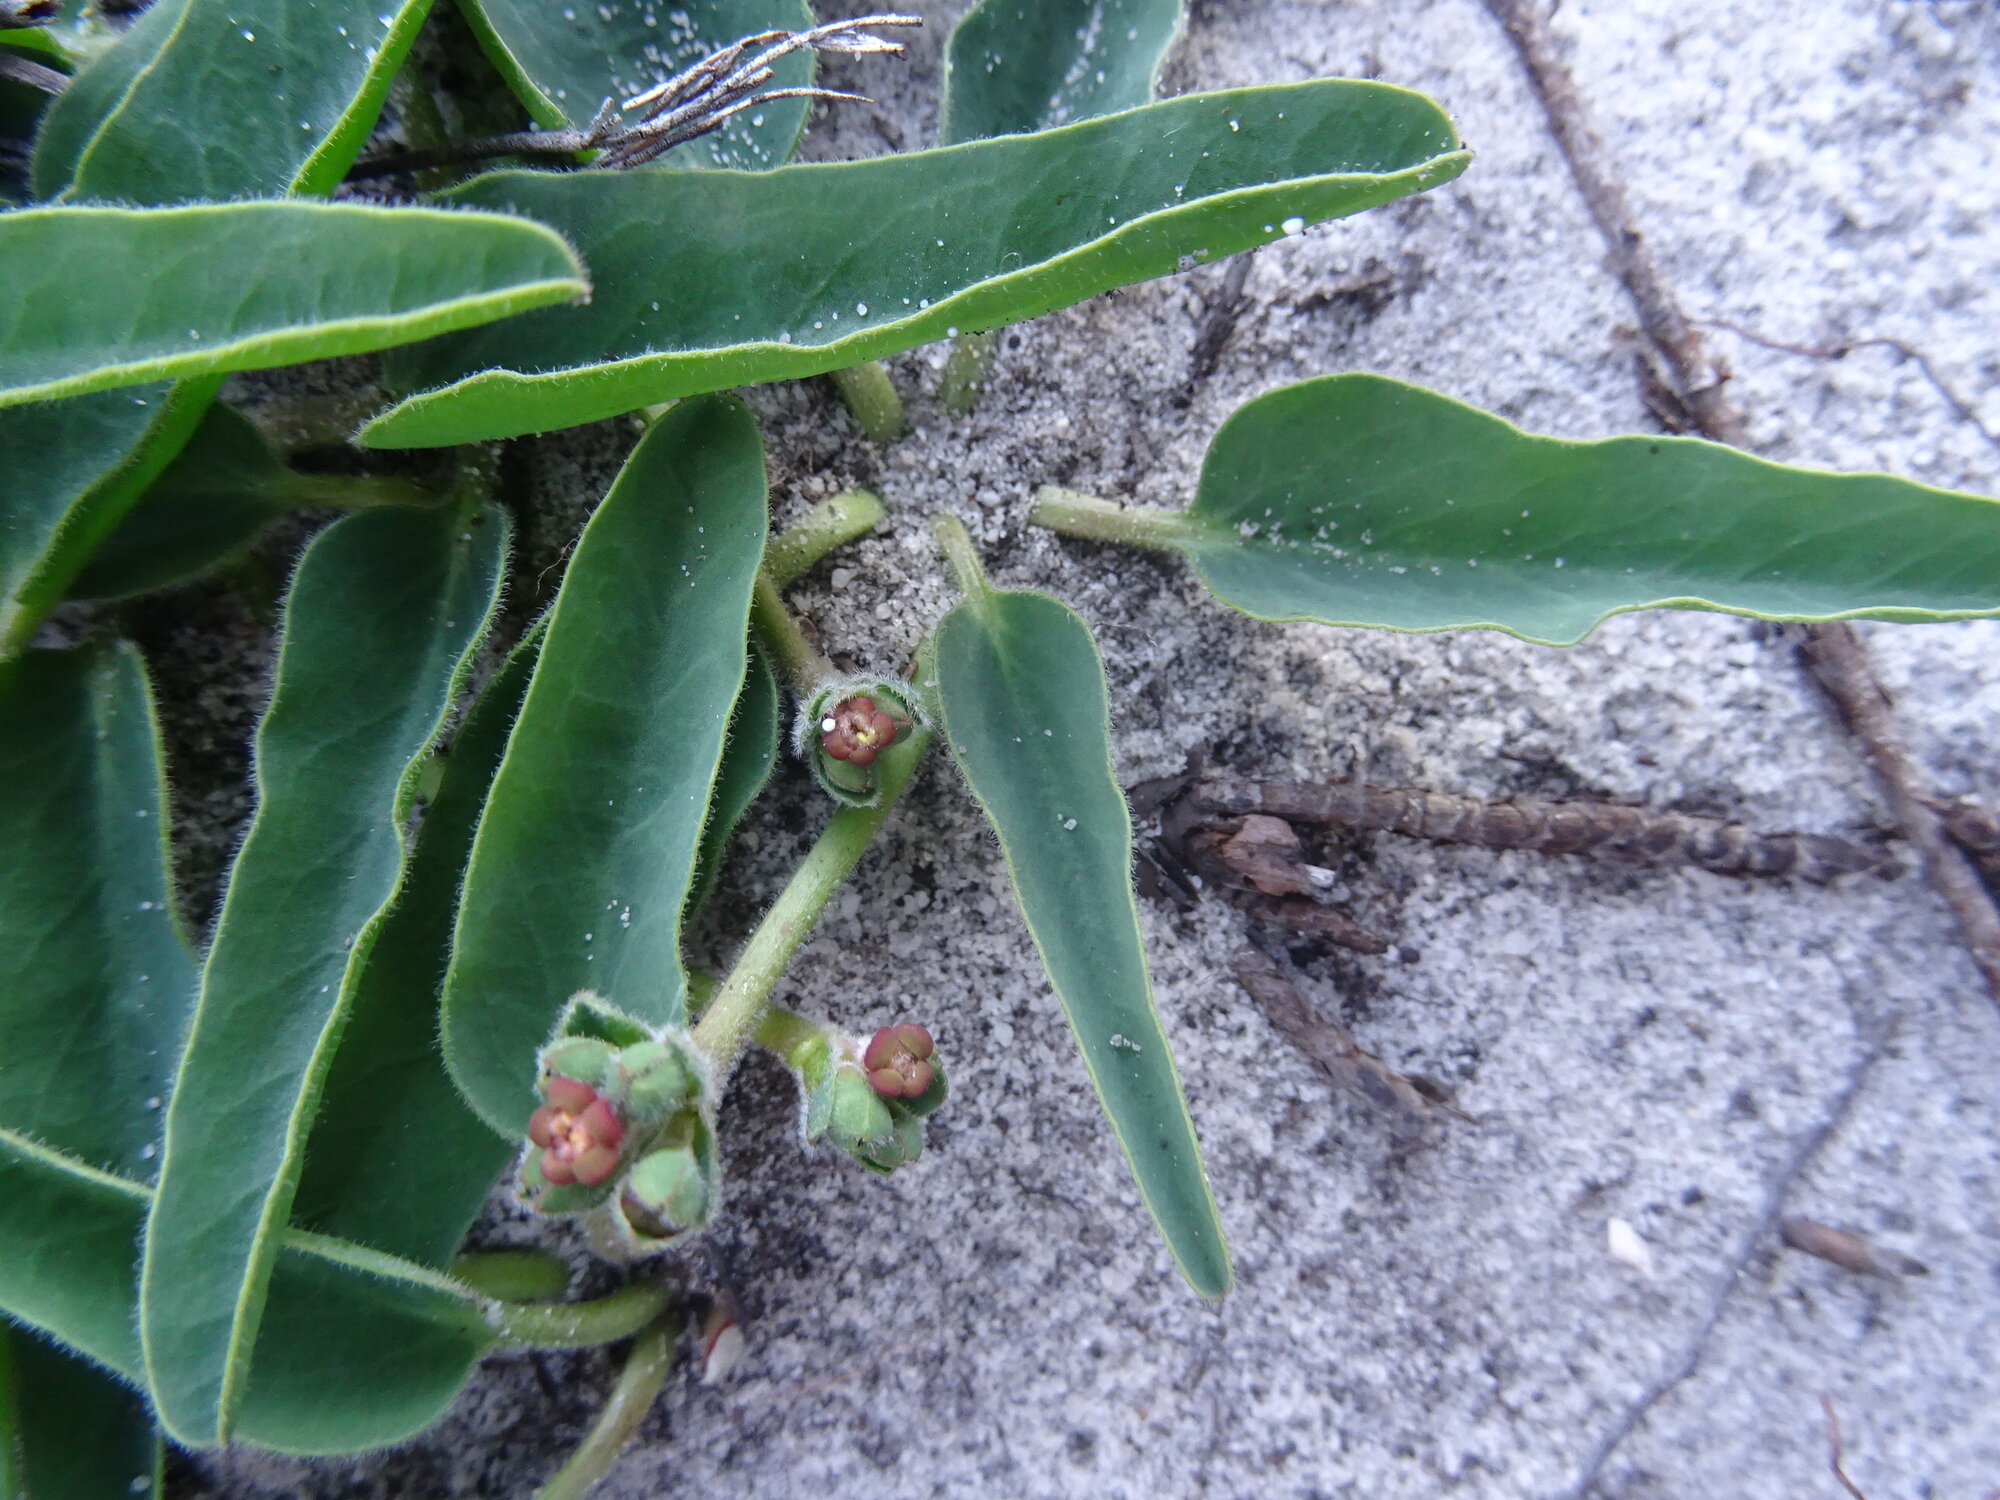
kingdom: Plantae
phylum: Tracheophyta
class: Magnoliopsida
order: Malpighiales
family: Euphorbiaceae
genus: Euphorbia
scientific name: Euphorbia tuberosa
